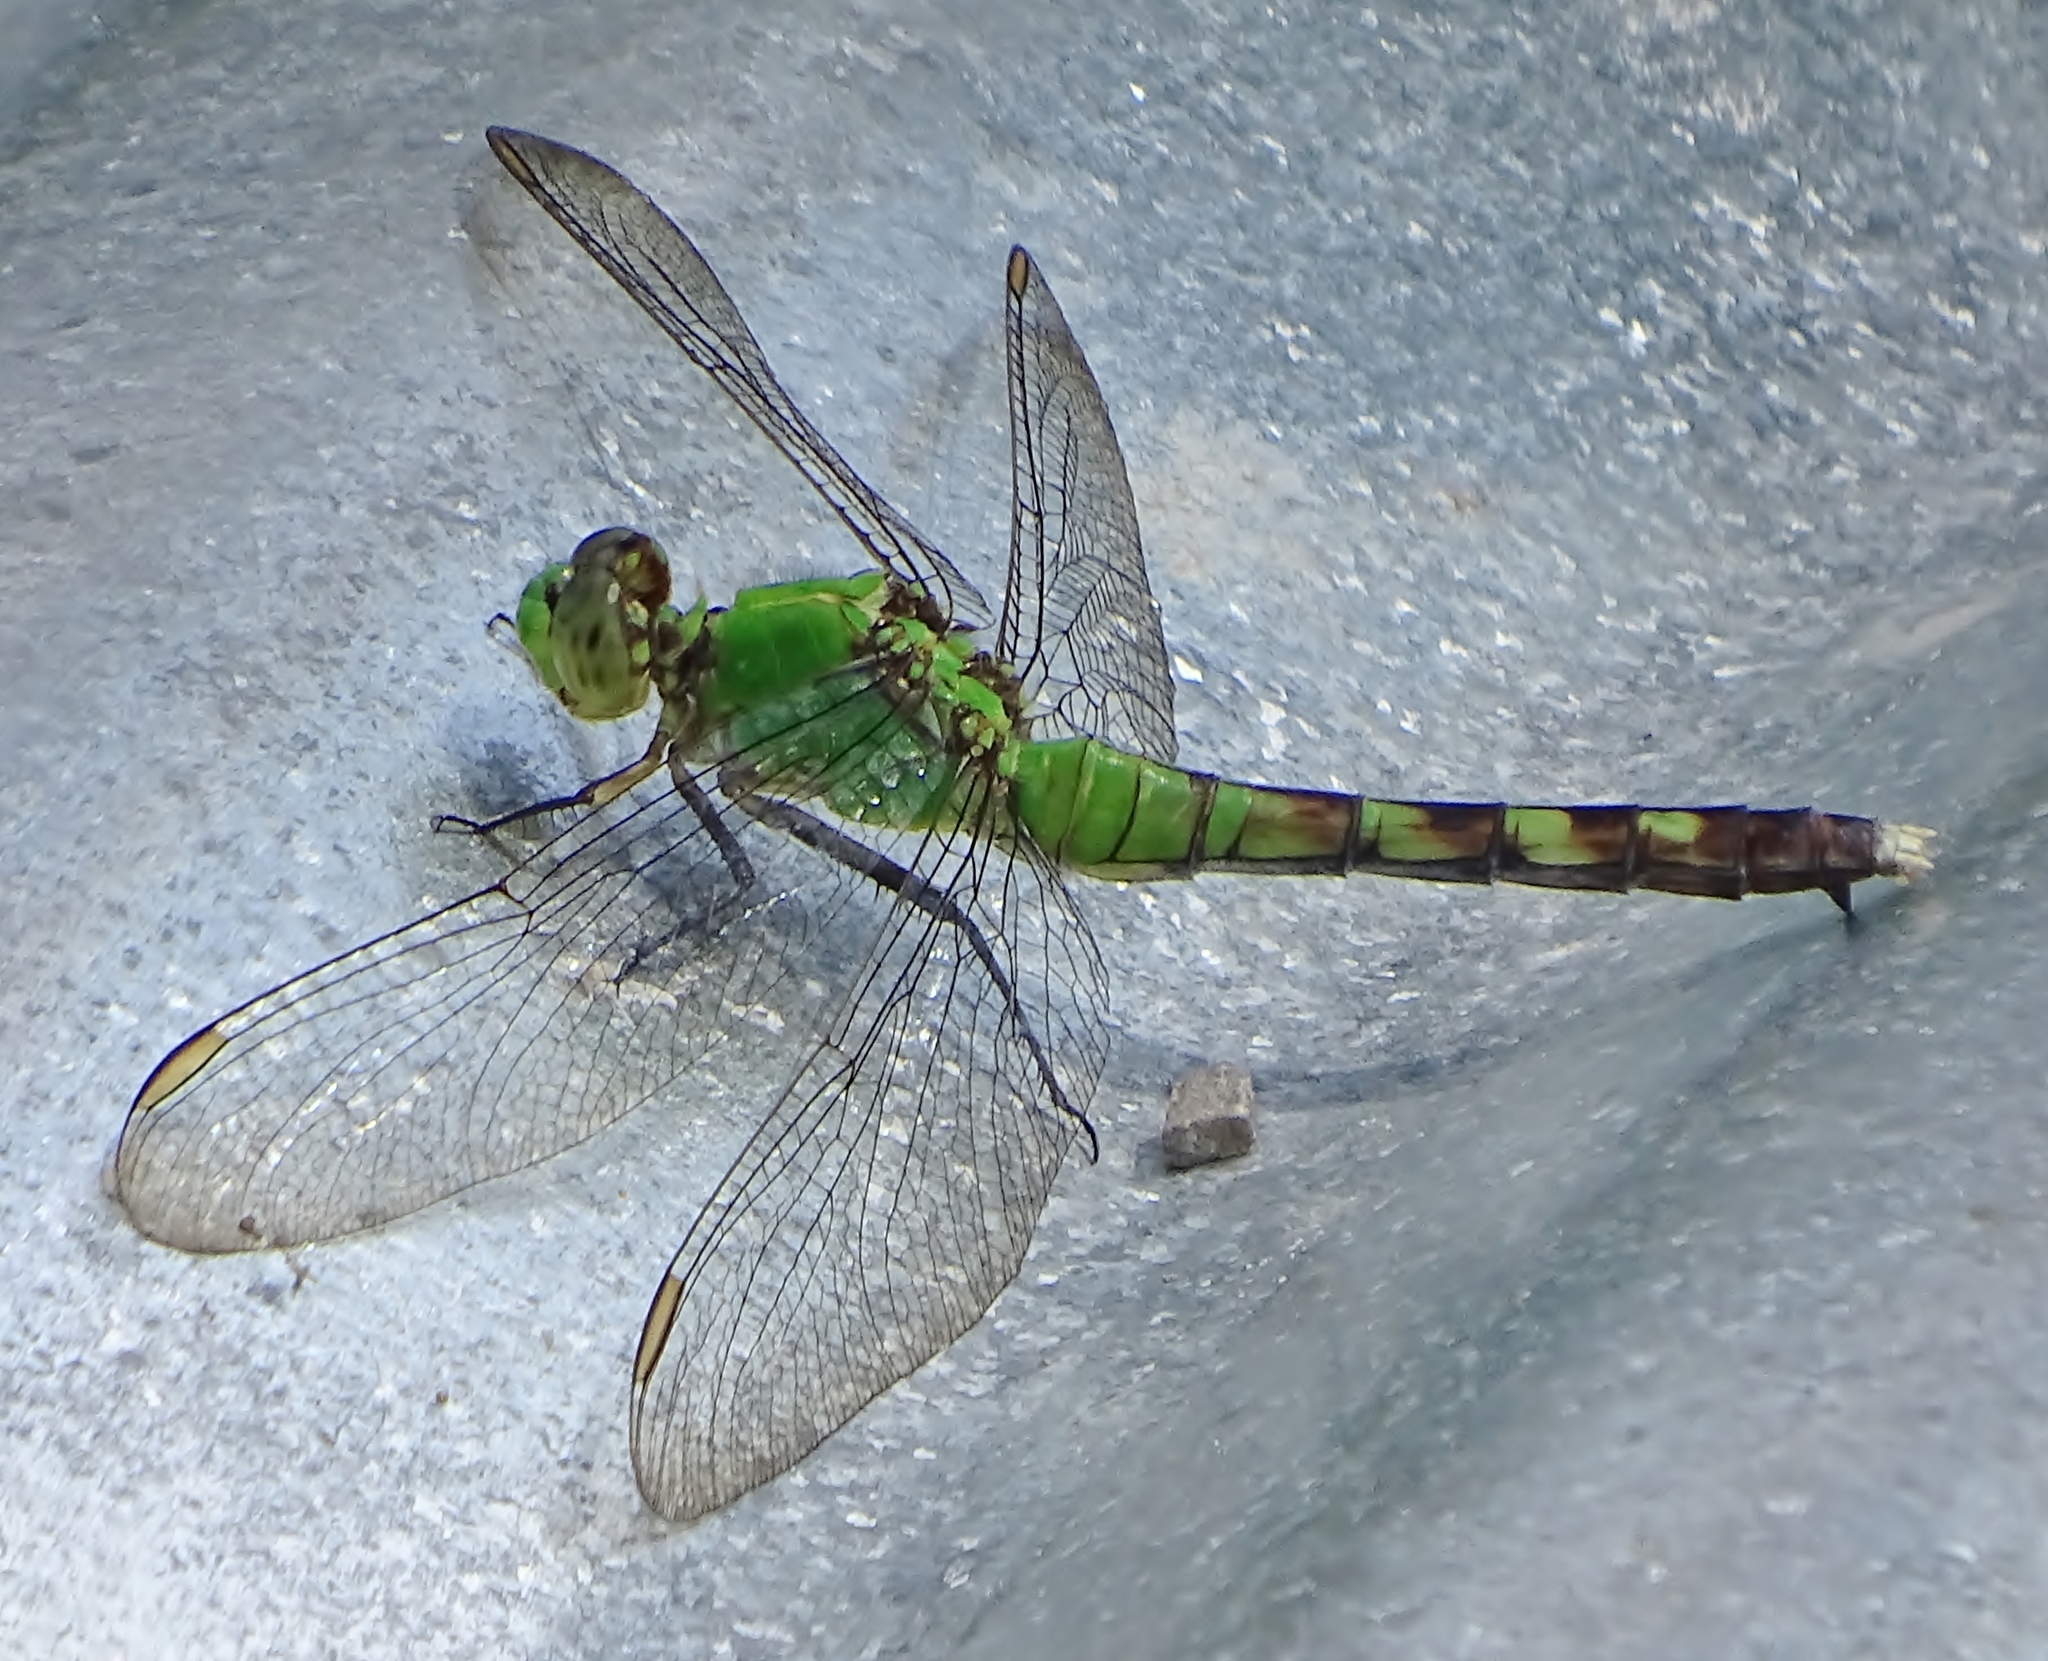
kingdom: Animalia
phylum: Arthropoda
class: Insecta
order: Odonata
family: Libellulidae
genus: Erythemis
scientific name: Erythemis simplicicollis
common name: Eastern pondhawk
